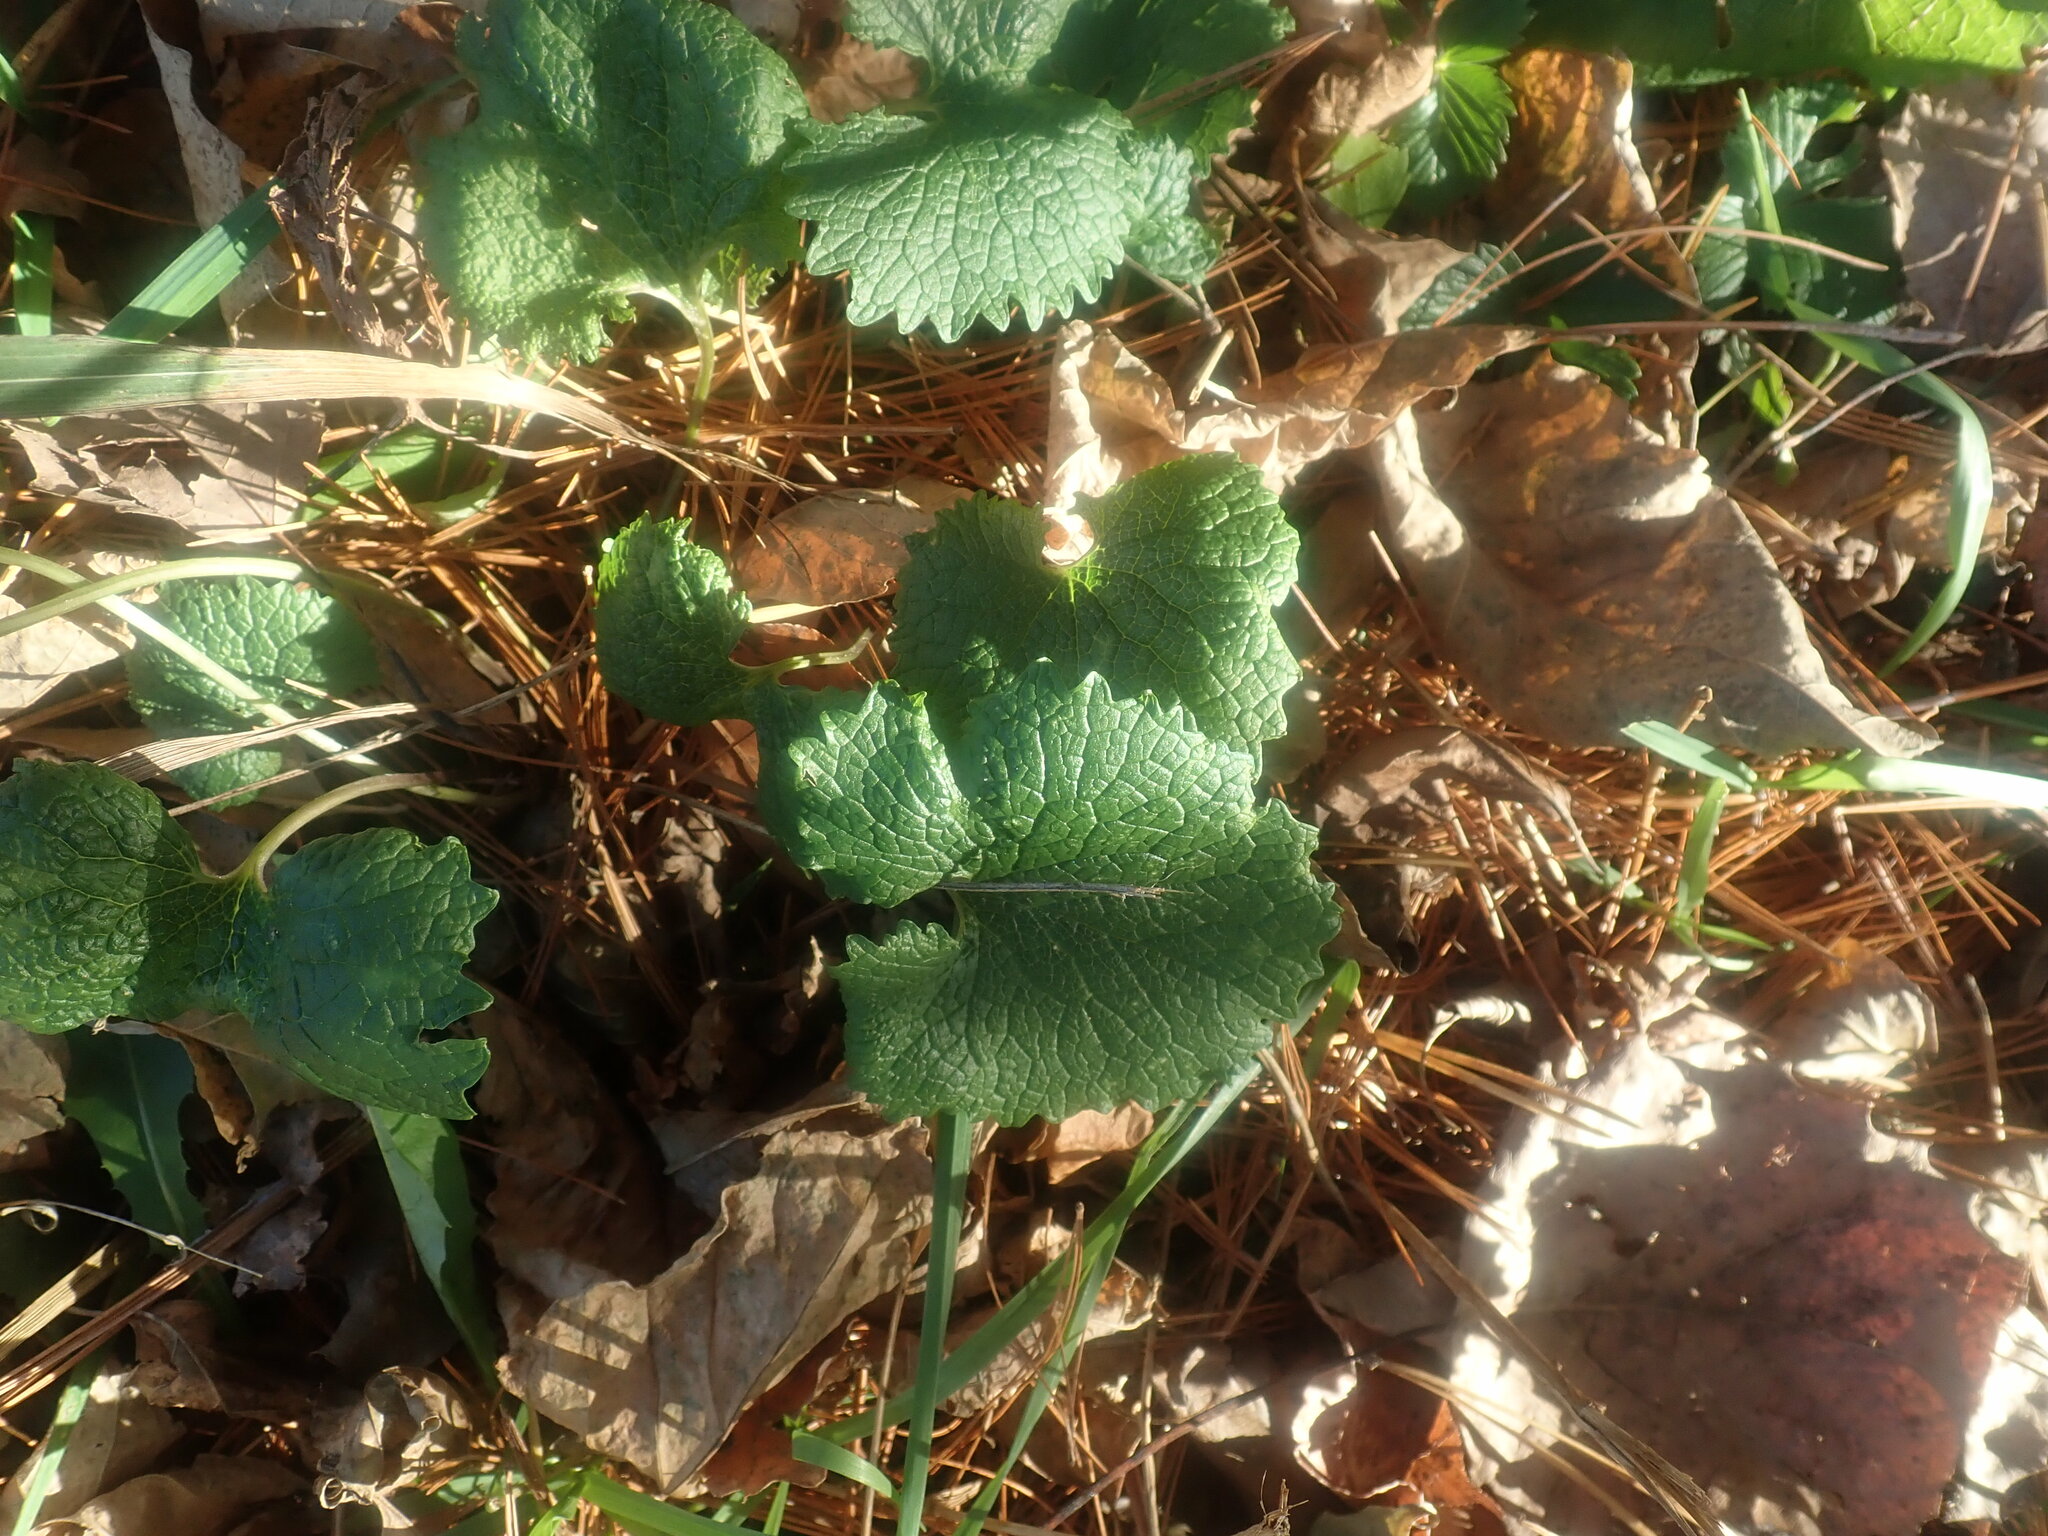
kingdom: Plantae
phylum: Tracheophyta
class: Magnoliopsida
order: Brassicales
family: Brassicaceae
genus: Alliaria
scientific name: Alliaria petiolata
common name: Garlic mustard
